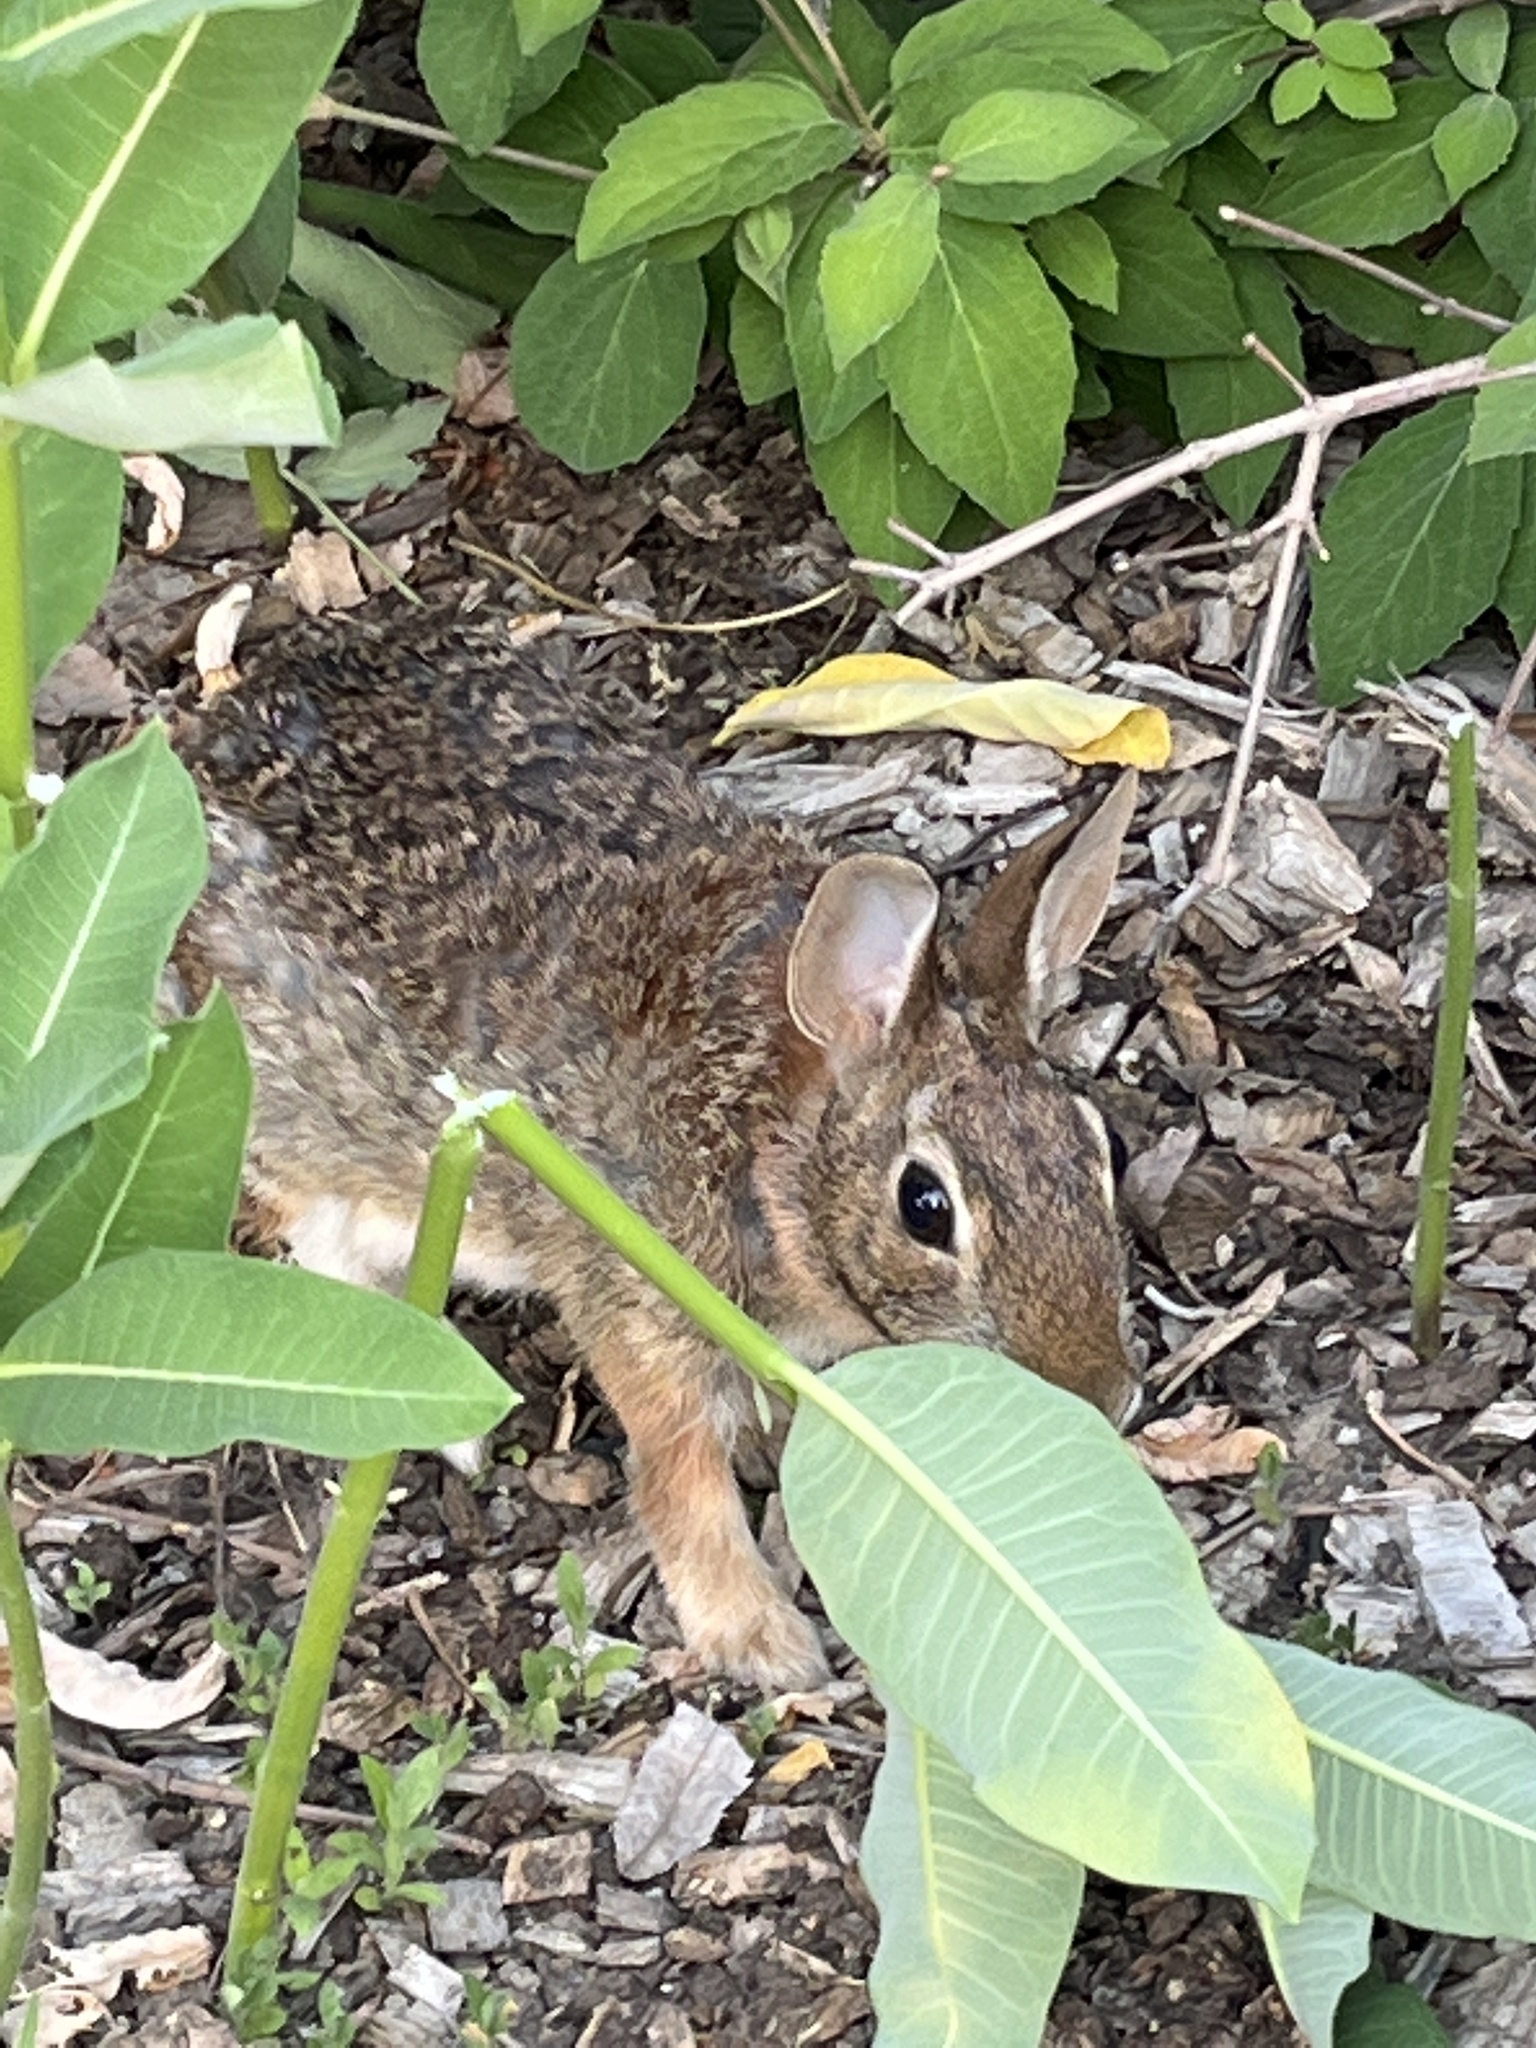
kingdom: Animalia
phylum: Chordata
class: Mammalia
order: Lagomorpha
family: Leporidae
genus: Sylvilagus
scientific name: Sylvilagus floridanus
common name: Eastern cottontail
